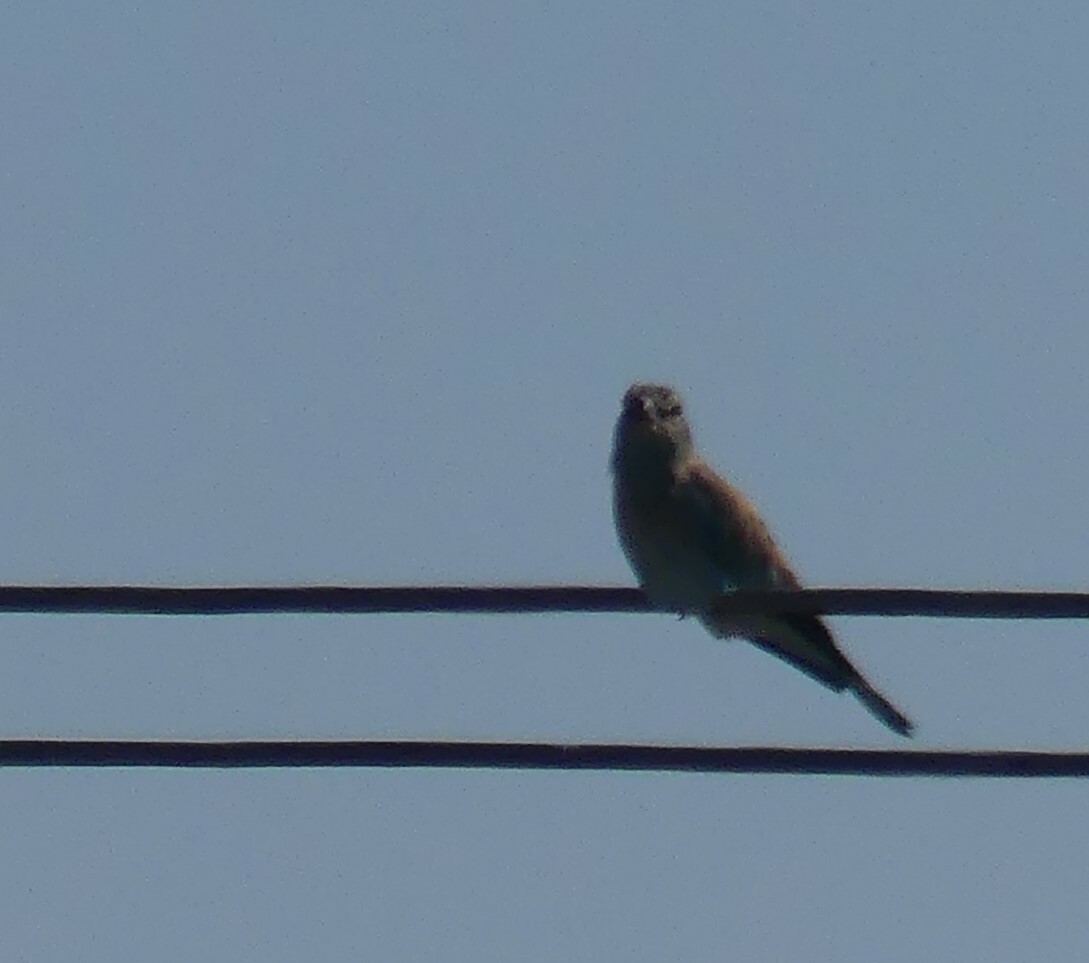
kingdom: Animalia
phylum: Chordata
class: Aves
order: Coraciiformes
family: Coraciidae
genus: Coracias
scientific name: Coracias garrulus
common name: European roller
